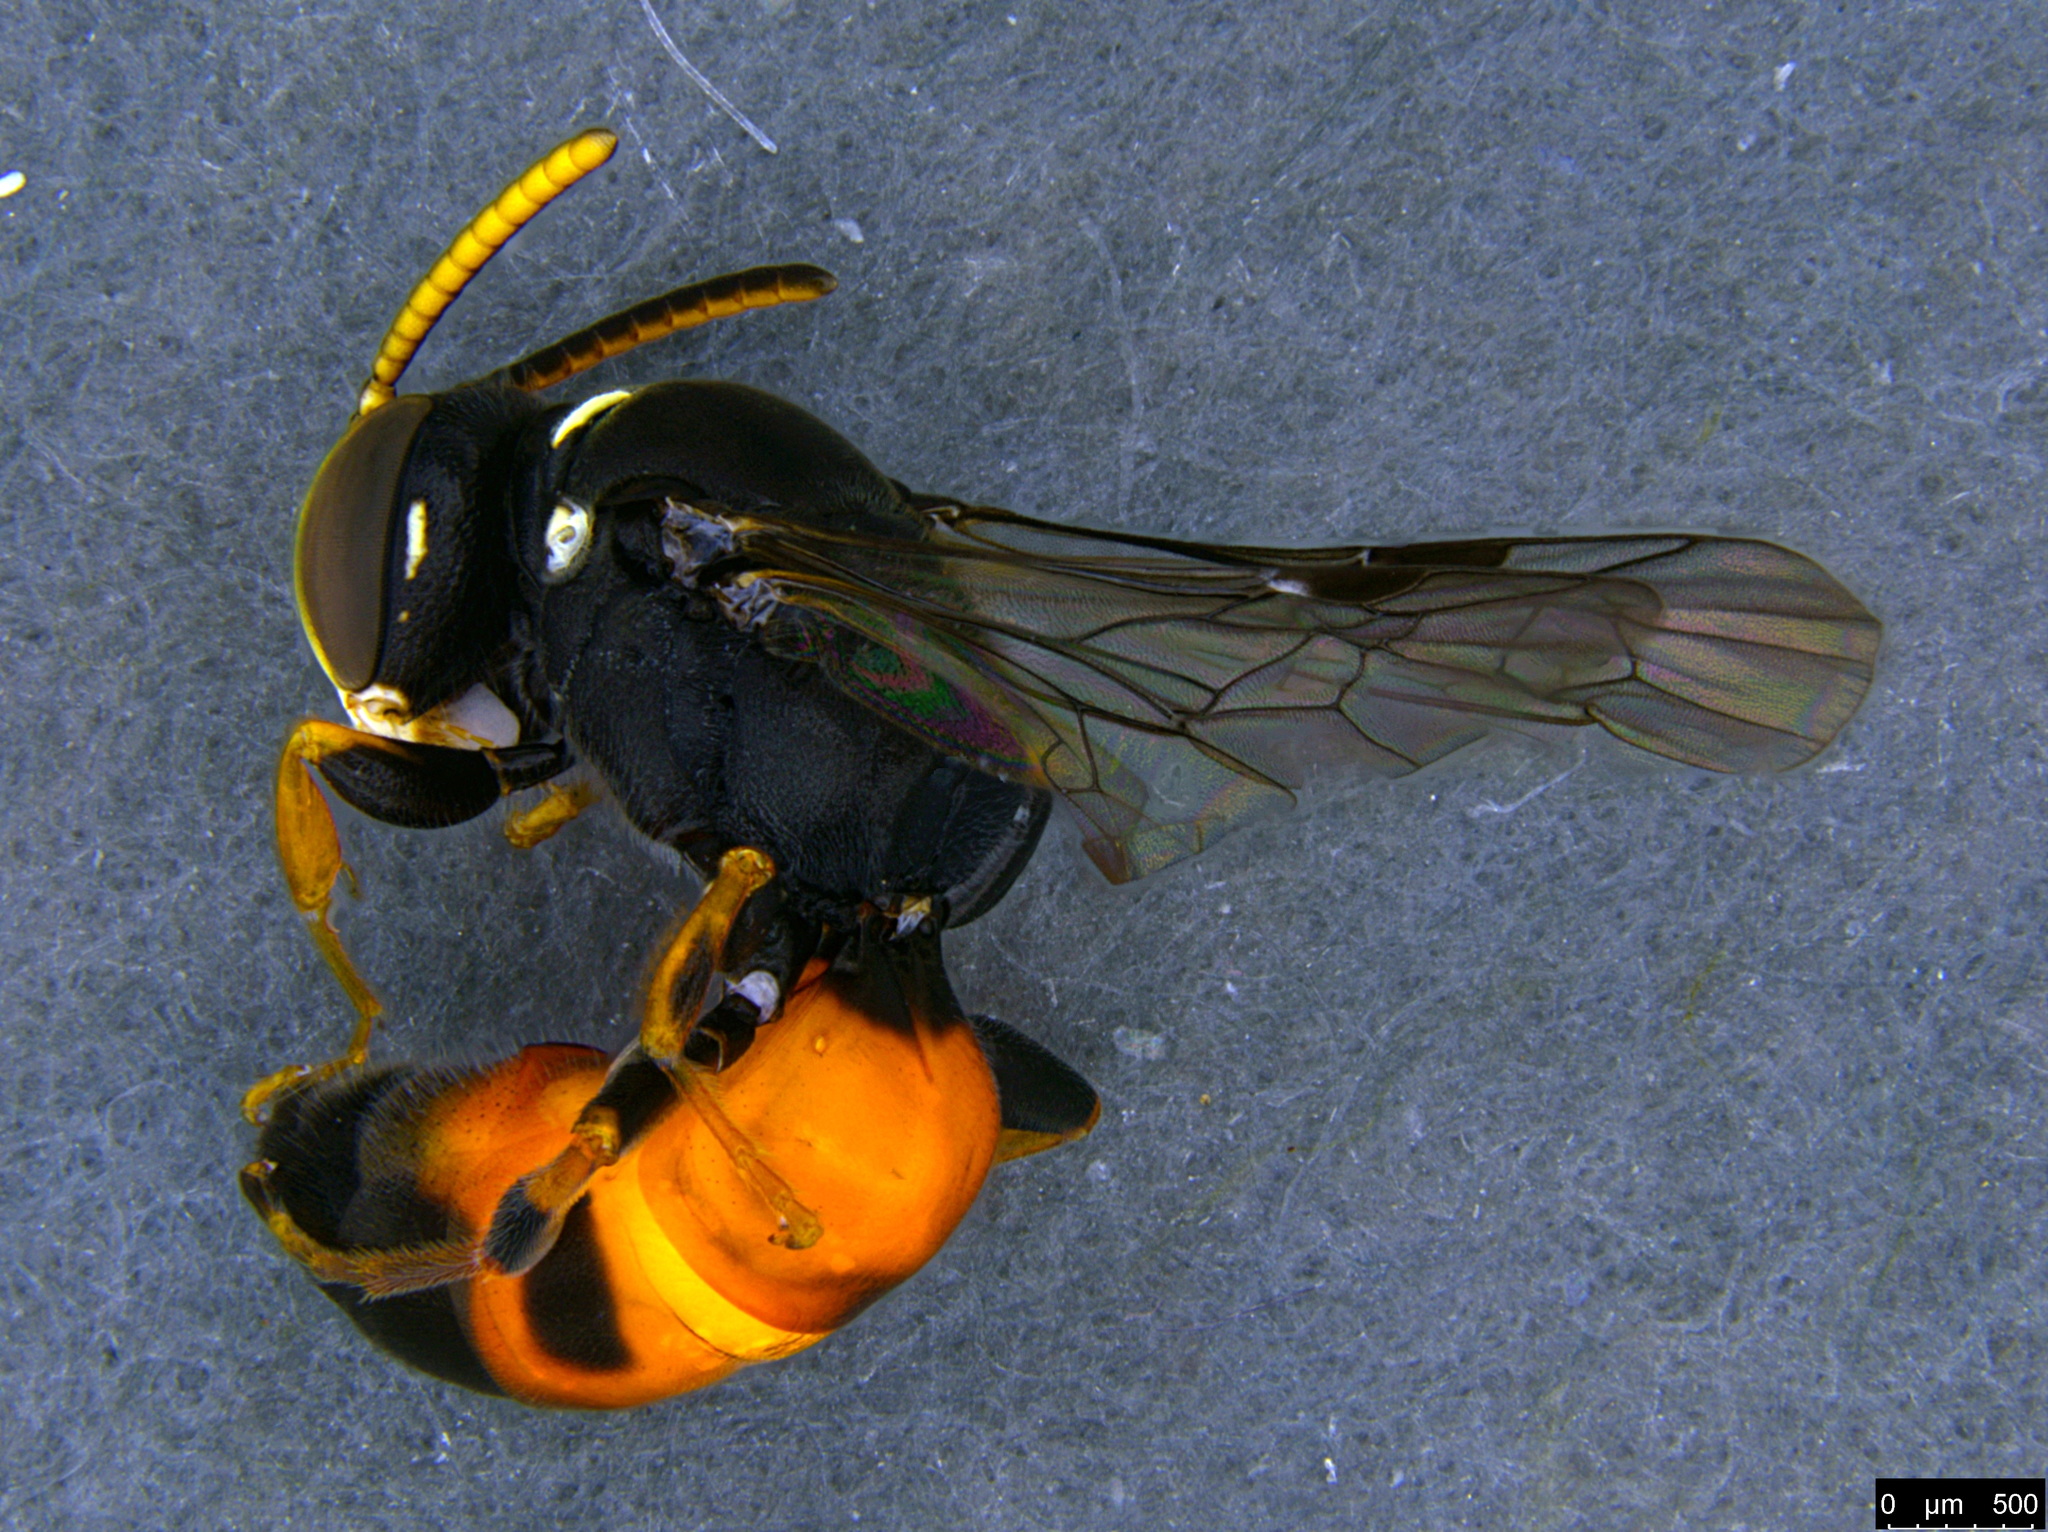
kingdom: Animalia
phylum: Arthropoda
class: Insecta
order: Hymenoptera
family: Colletidae
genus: Hylaeus
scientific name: Hylaeus littleri
